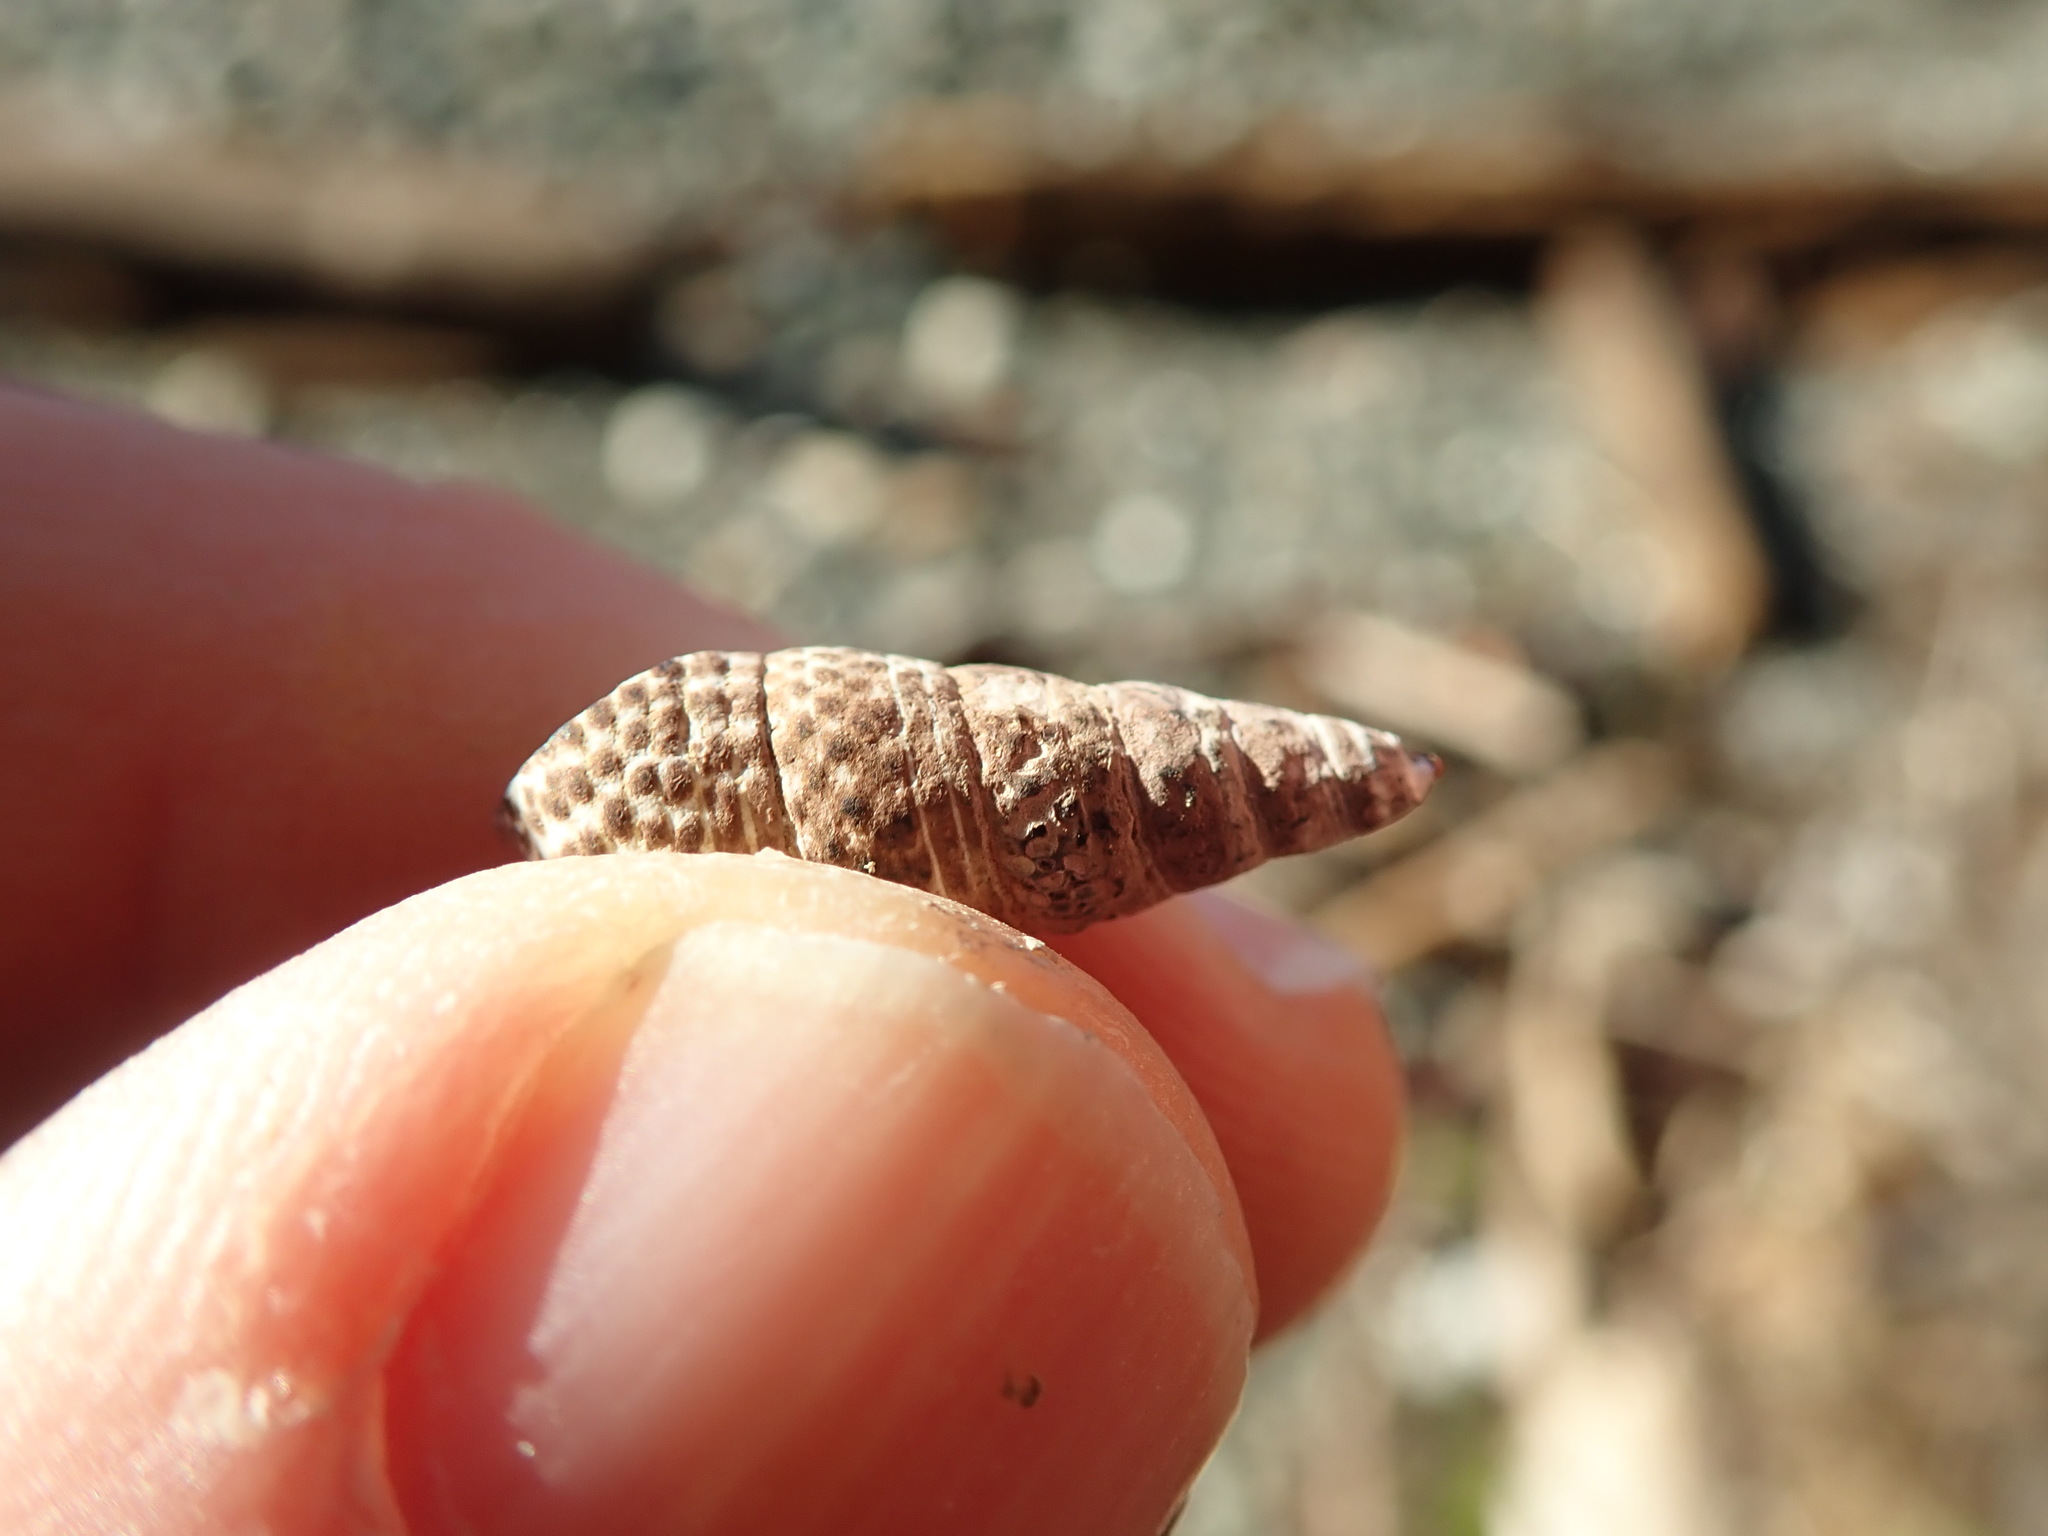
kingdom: Animalia
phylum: Mollusca
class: Gastropoda
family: Batillariidae
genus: Batillaria
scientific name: Batillaria attramentaria
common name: Japanese false cerith
